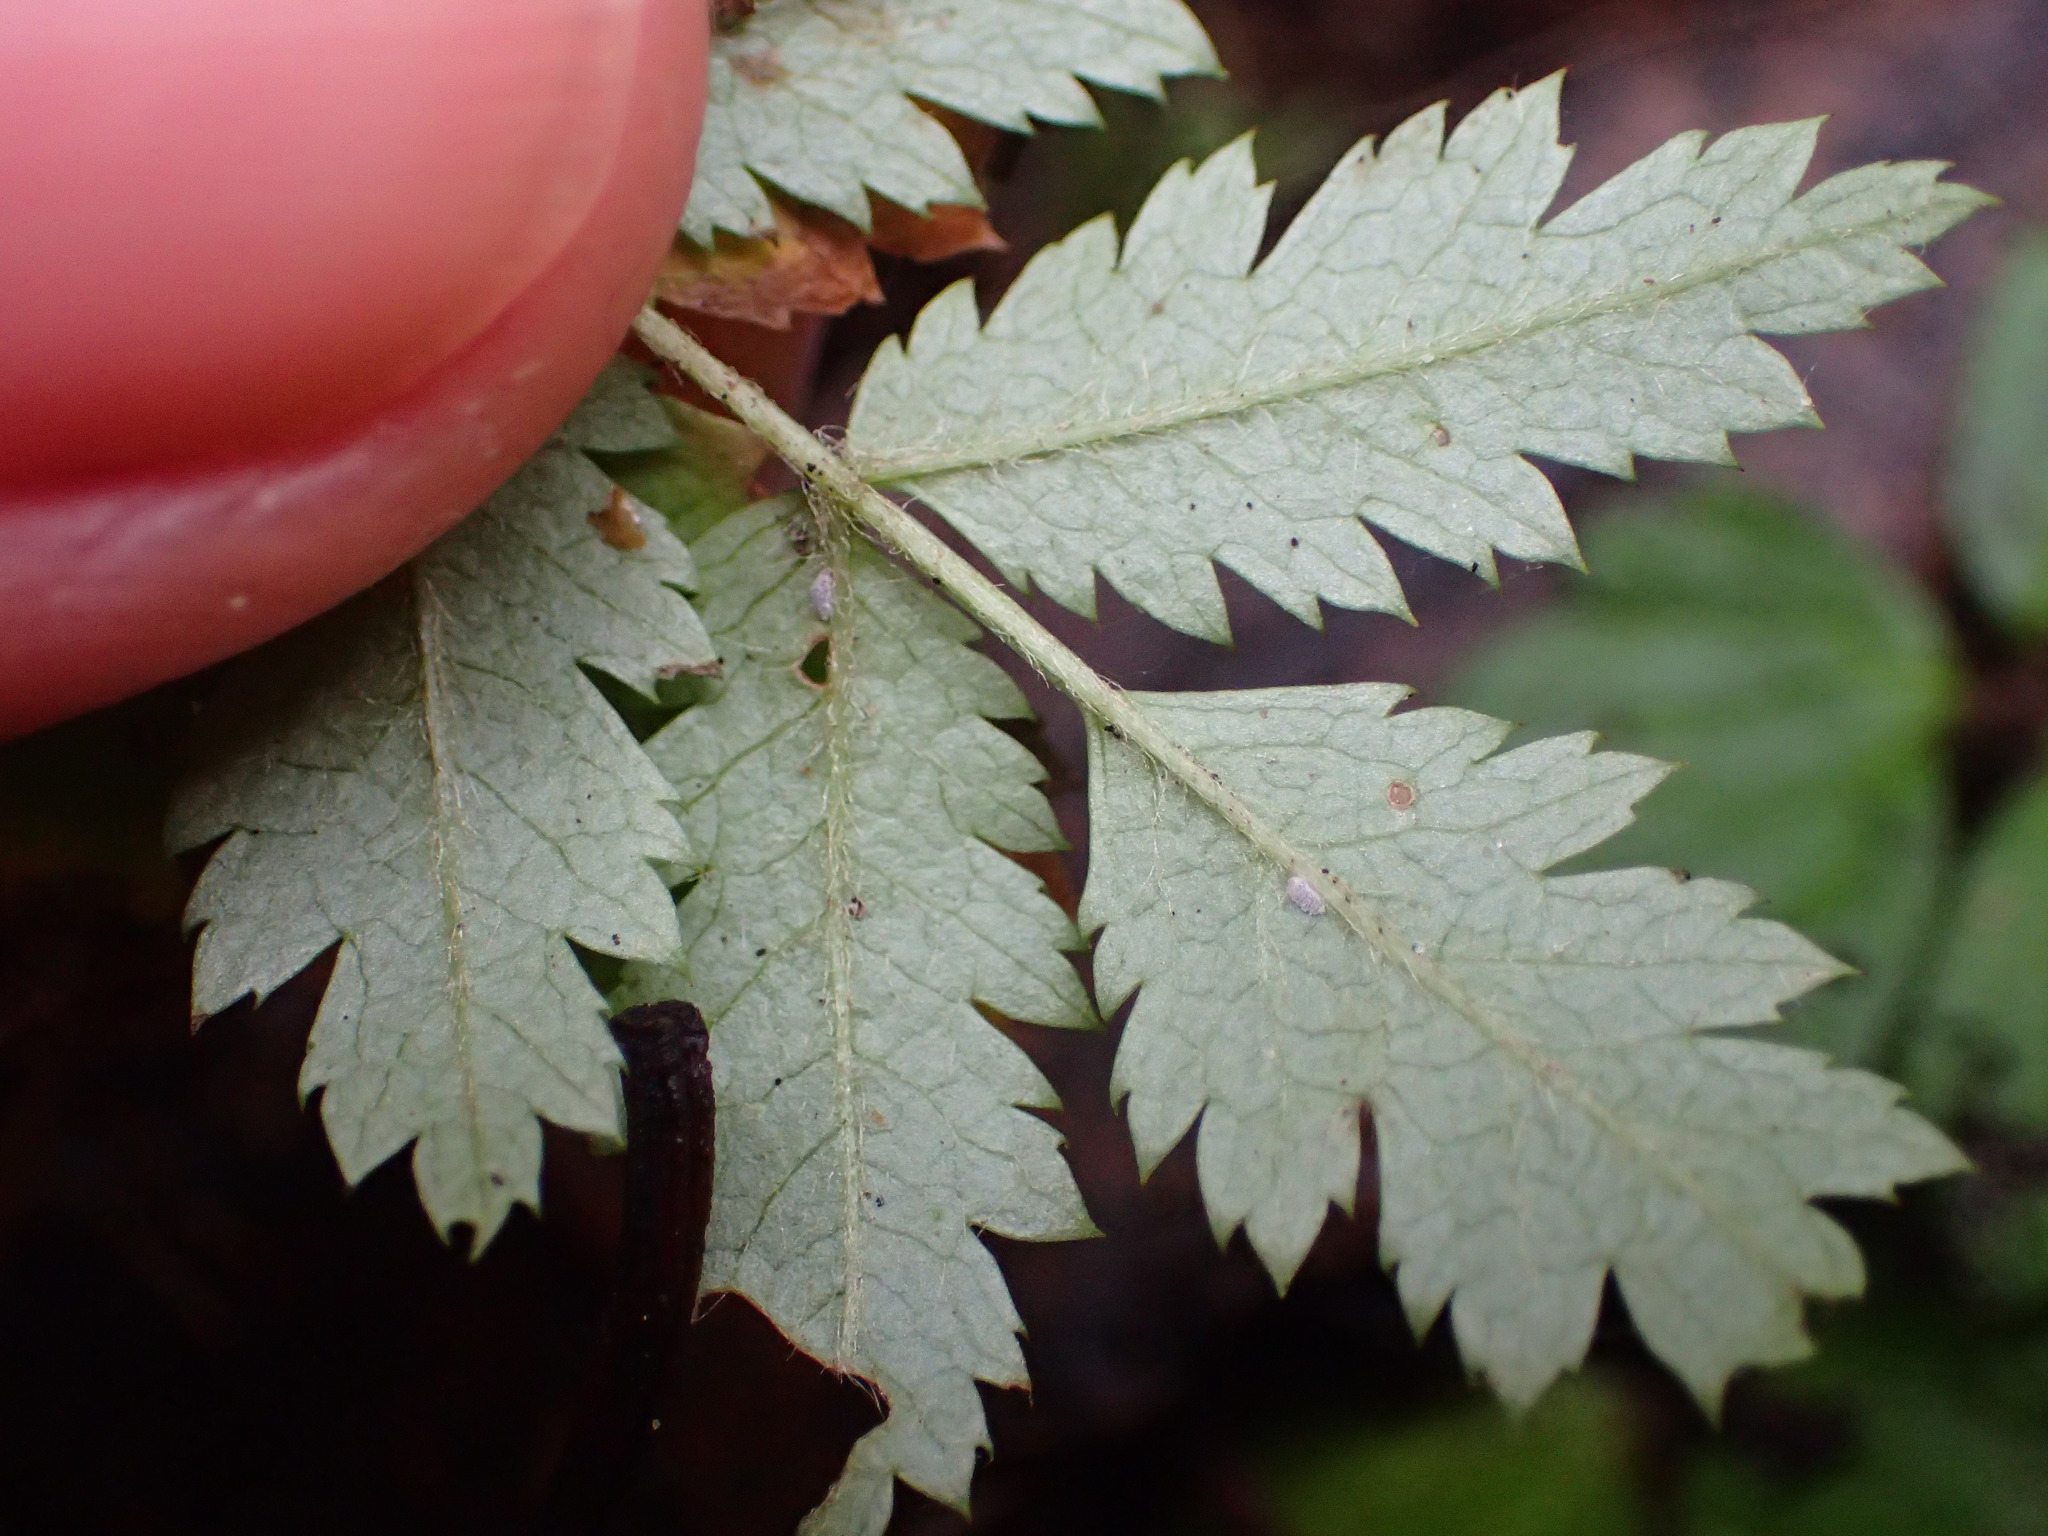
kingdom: Plantae
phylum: Tracheophyta
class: Magnoliopsida
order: Rosales
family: Rosaceae
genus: Sorbus
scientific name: Sorbus aucuparia
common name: Rowan
